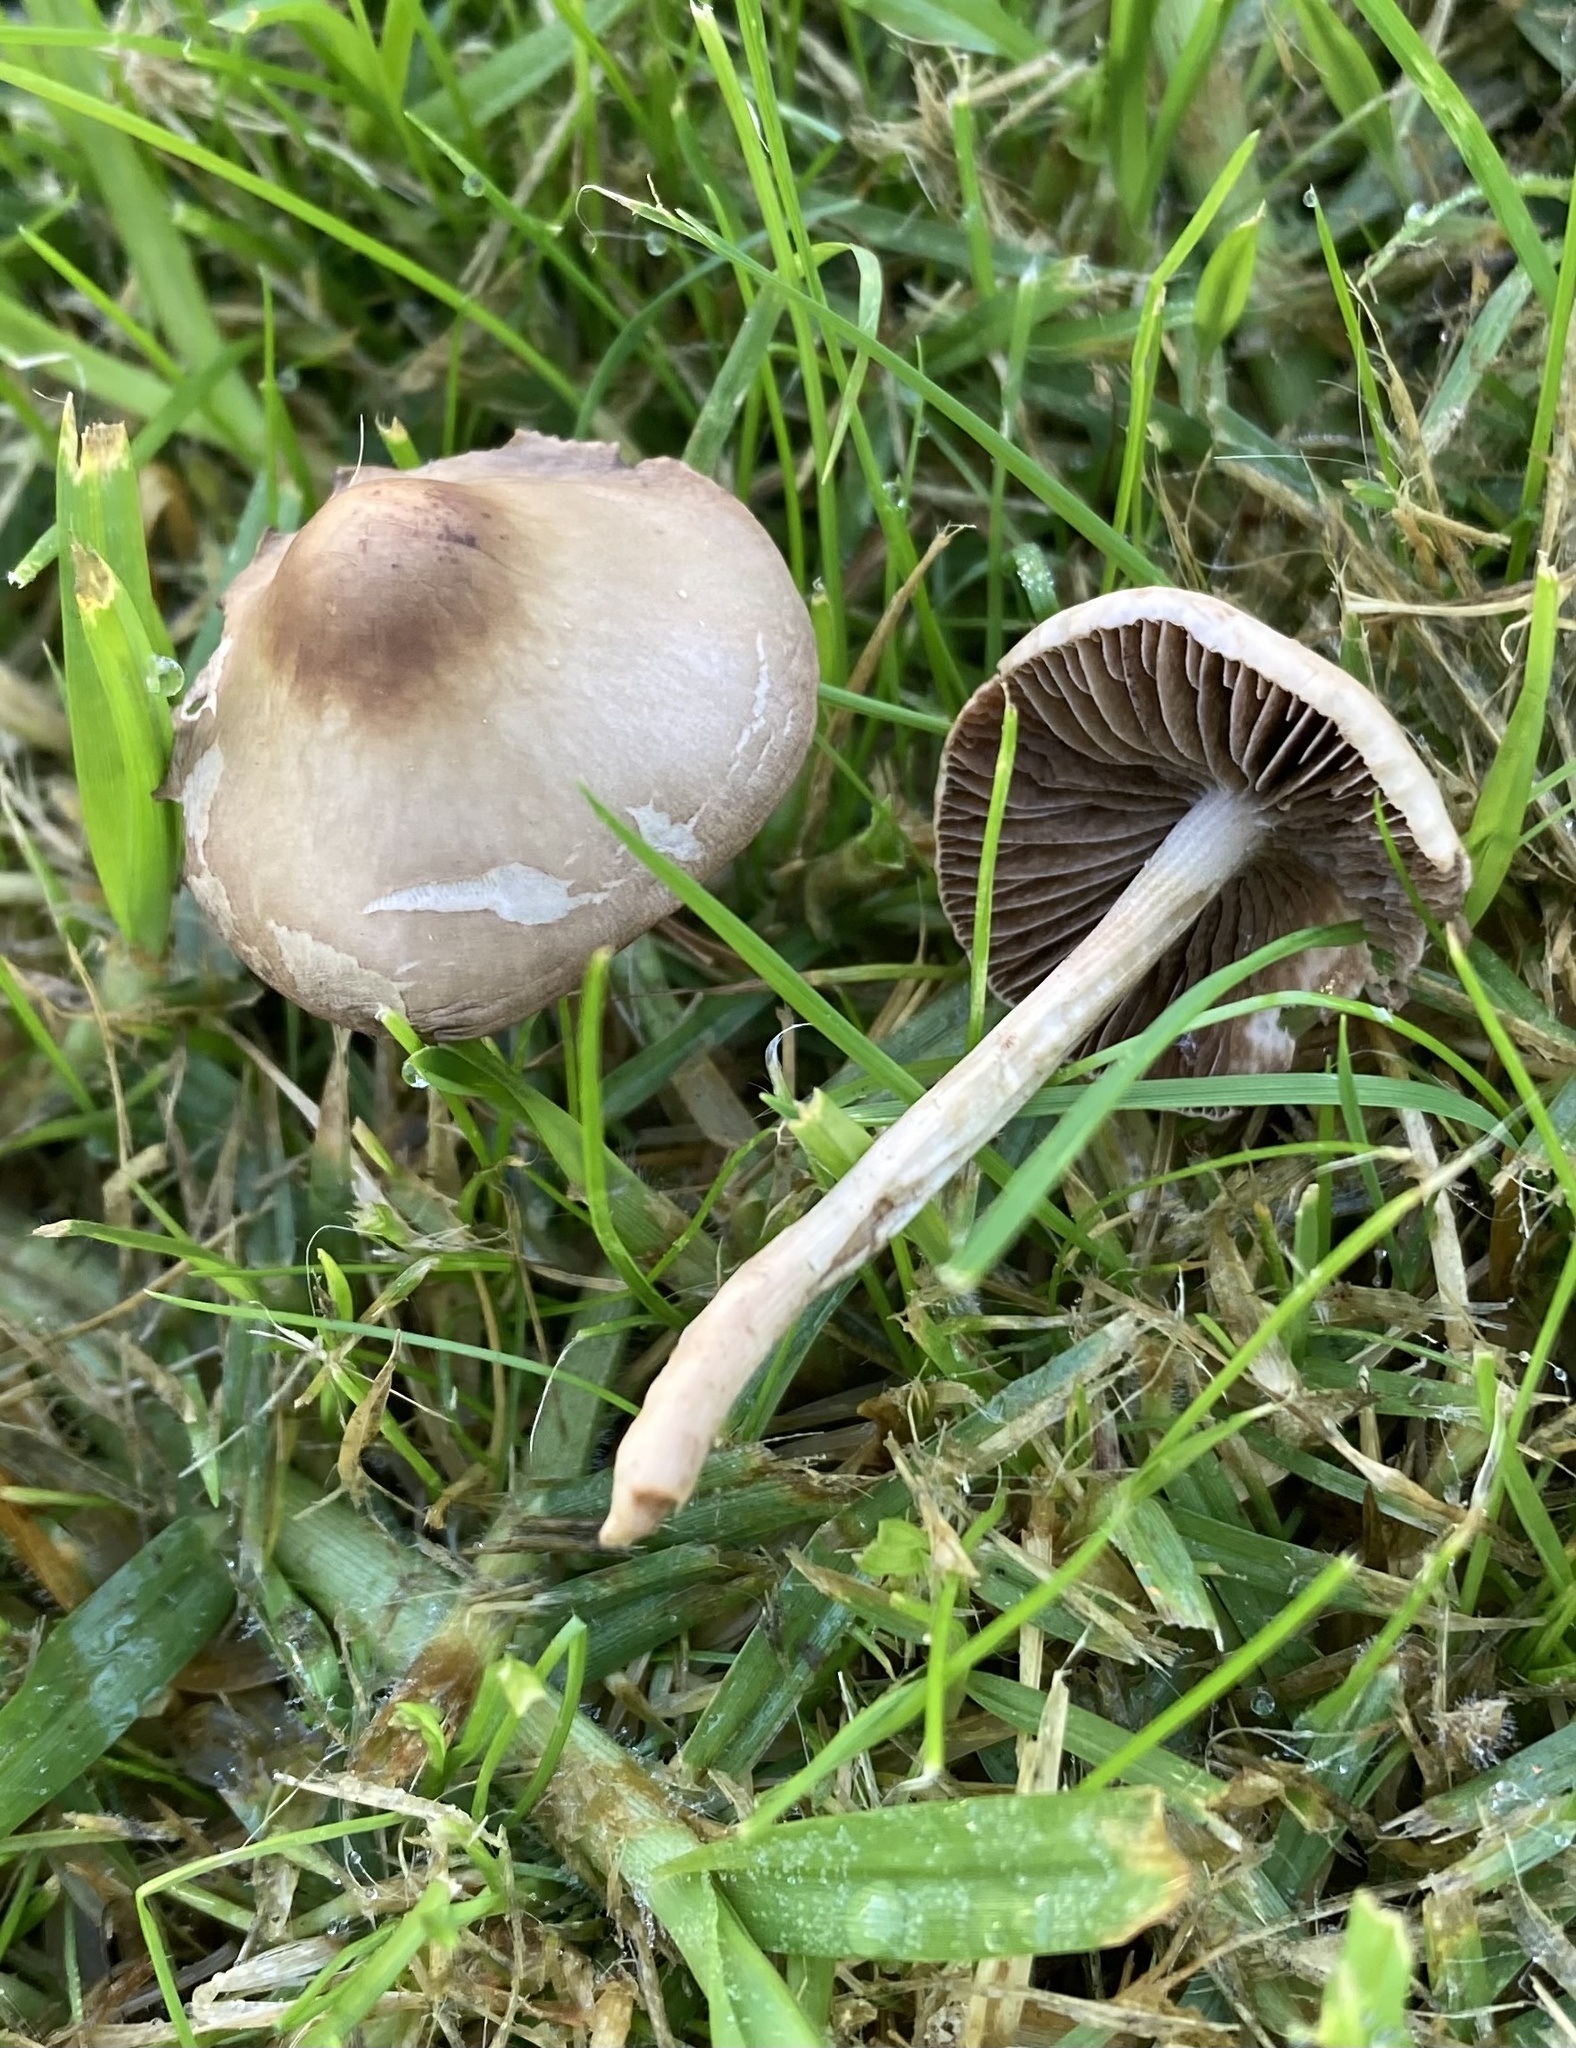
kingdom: Fungi
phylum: Basidiomycota
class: Agaricomycetes
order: Agaricales
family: Bolbitiaceae
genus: Panaeolina
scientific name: Panaeolina foenisecii
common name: Brown hay cap
